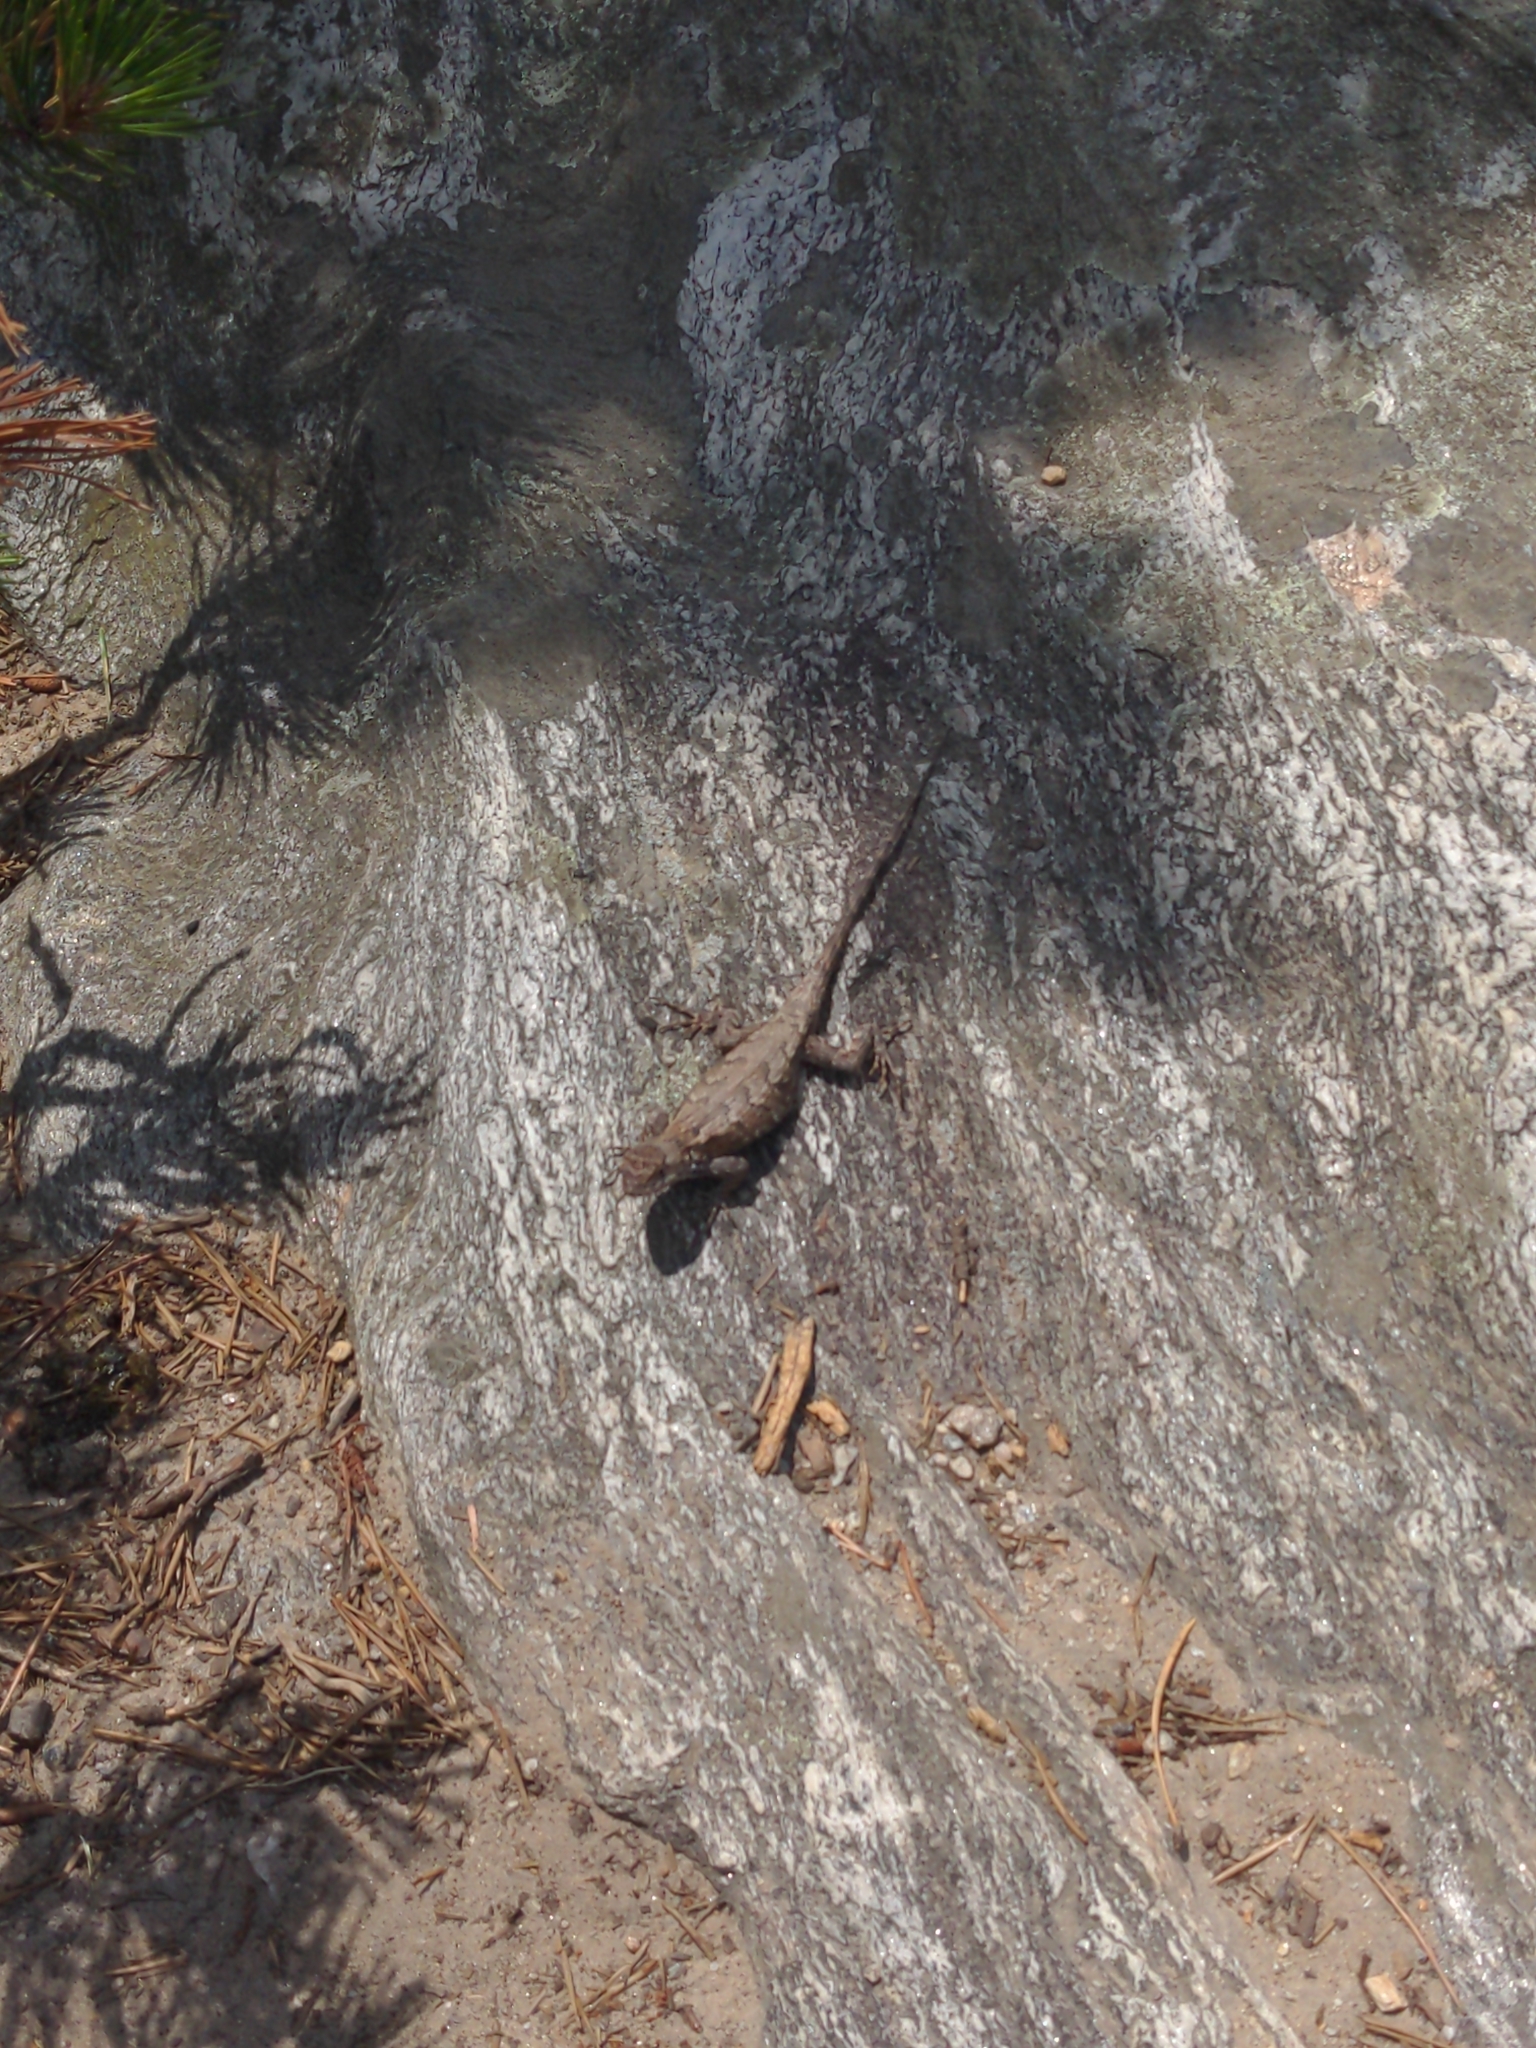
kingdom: Animalia
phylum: Chordata
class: Squamata
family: Phrynosomatidae
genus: Sceloporus
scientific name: Sceloporus undulatus
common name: Eastern fence lizard
